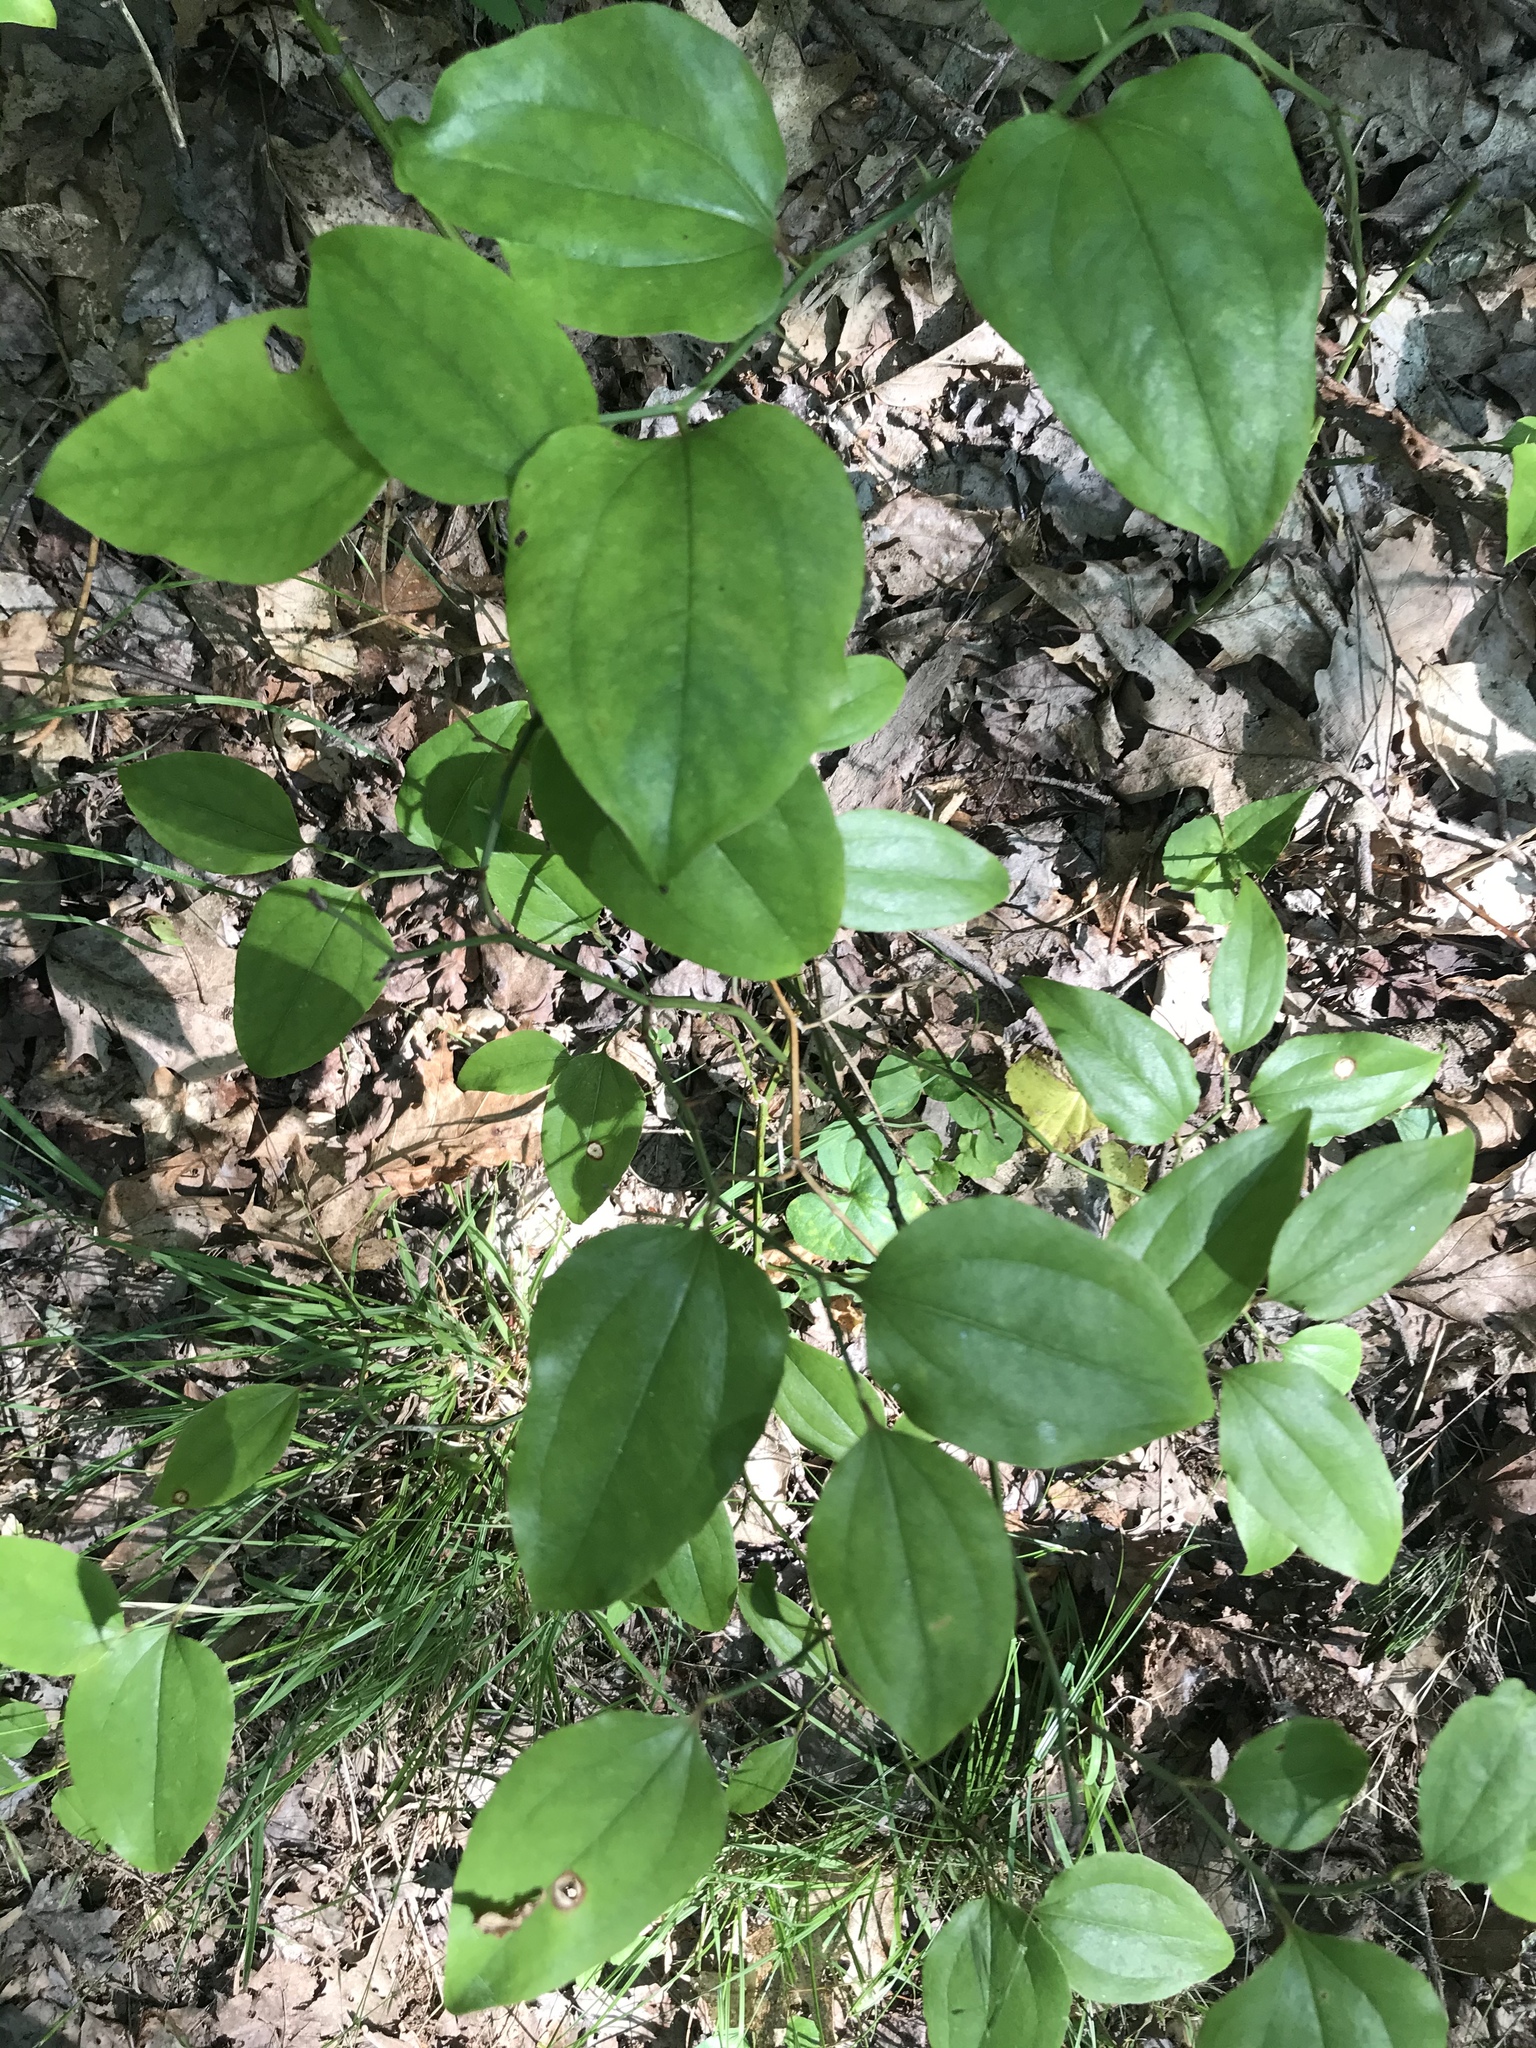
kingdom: Plantae
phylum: Tracheophyta
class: Liliopsida
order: Liliales
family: Smilacaceae
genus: Smilax
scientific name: Smilax rotundifolia
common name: Bullbriar
